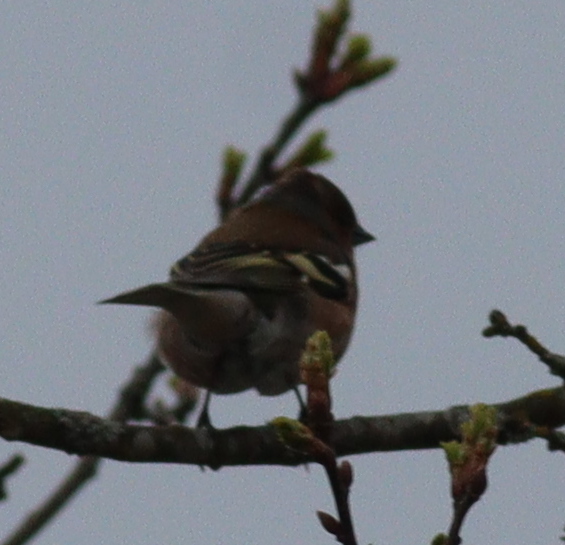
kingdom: Animalia
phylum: Chordata
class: Aves
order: Passeriformes
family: Fringillidae
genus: Fringilla
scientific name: Fringilla coelebs
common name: Common chaffinch
